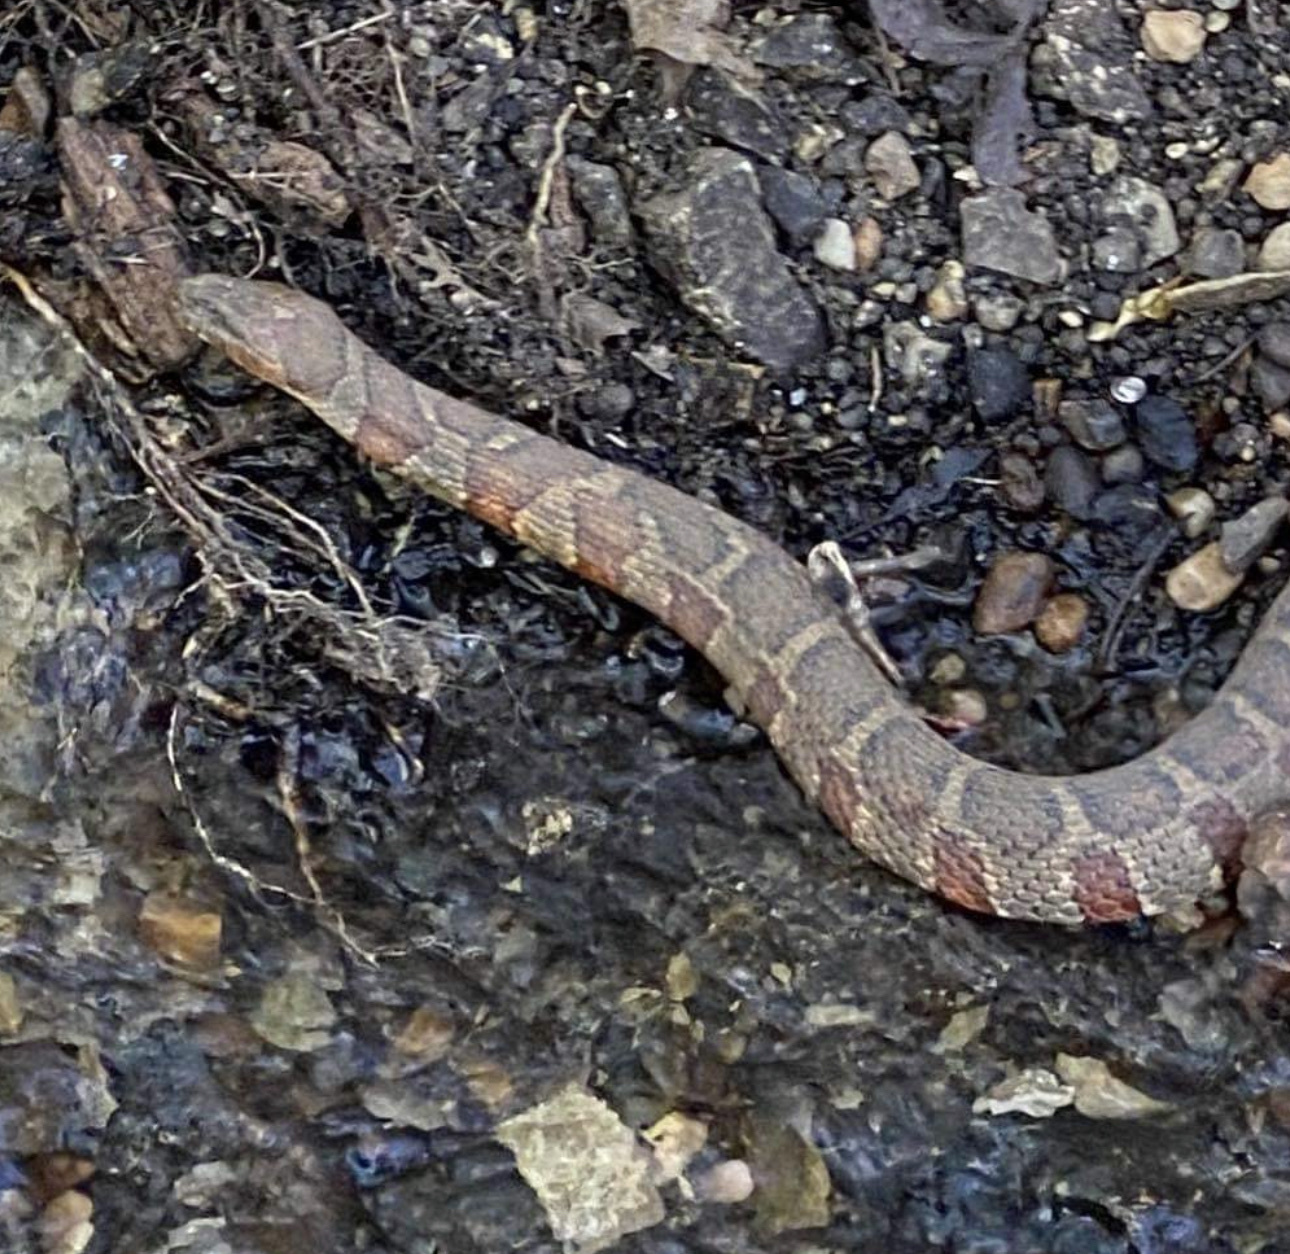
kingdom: Animalia
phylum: Chordata
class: Squamata
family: Colubridae
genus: Nerodia
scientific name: Nerodia sipedon
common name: Northern water snake
